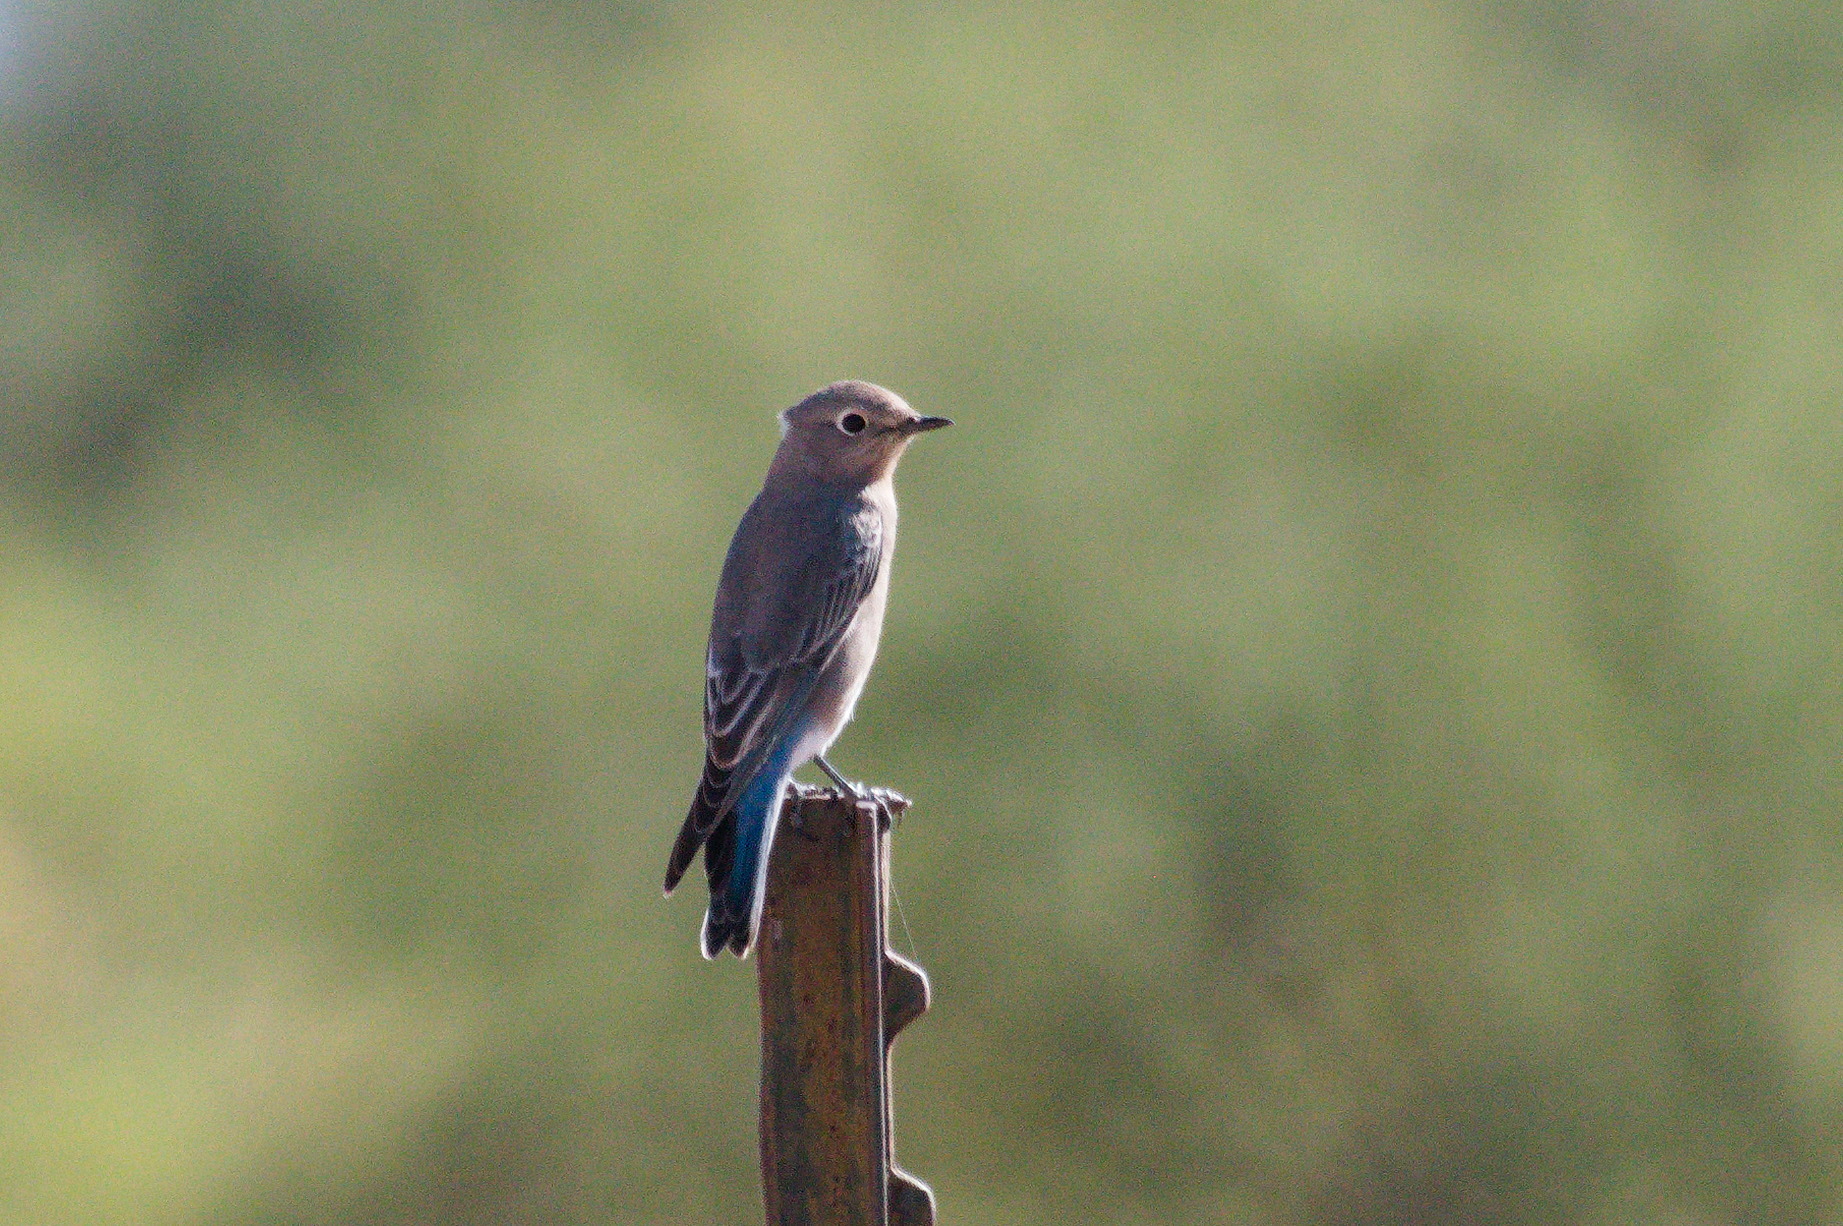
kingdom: Animalia
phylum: Chordata
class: Aves
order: Passeriformes
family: Turdidae
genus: Sialia
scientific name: Sialia currucoides
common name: Mountain bluebird
